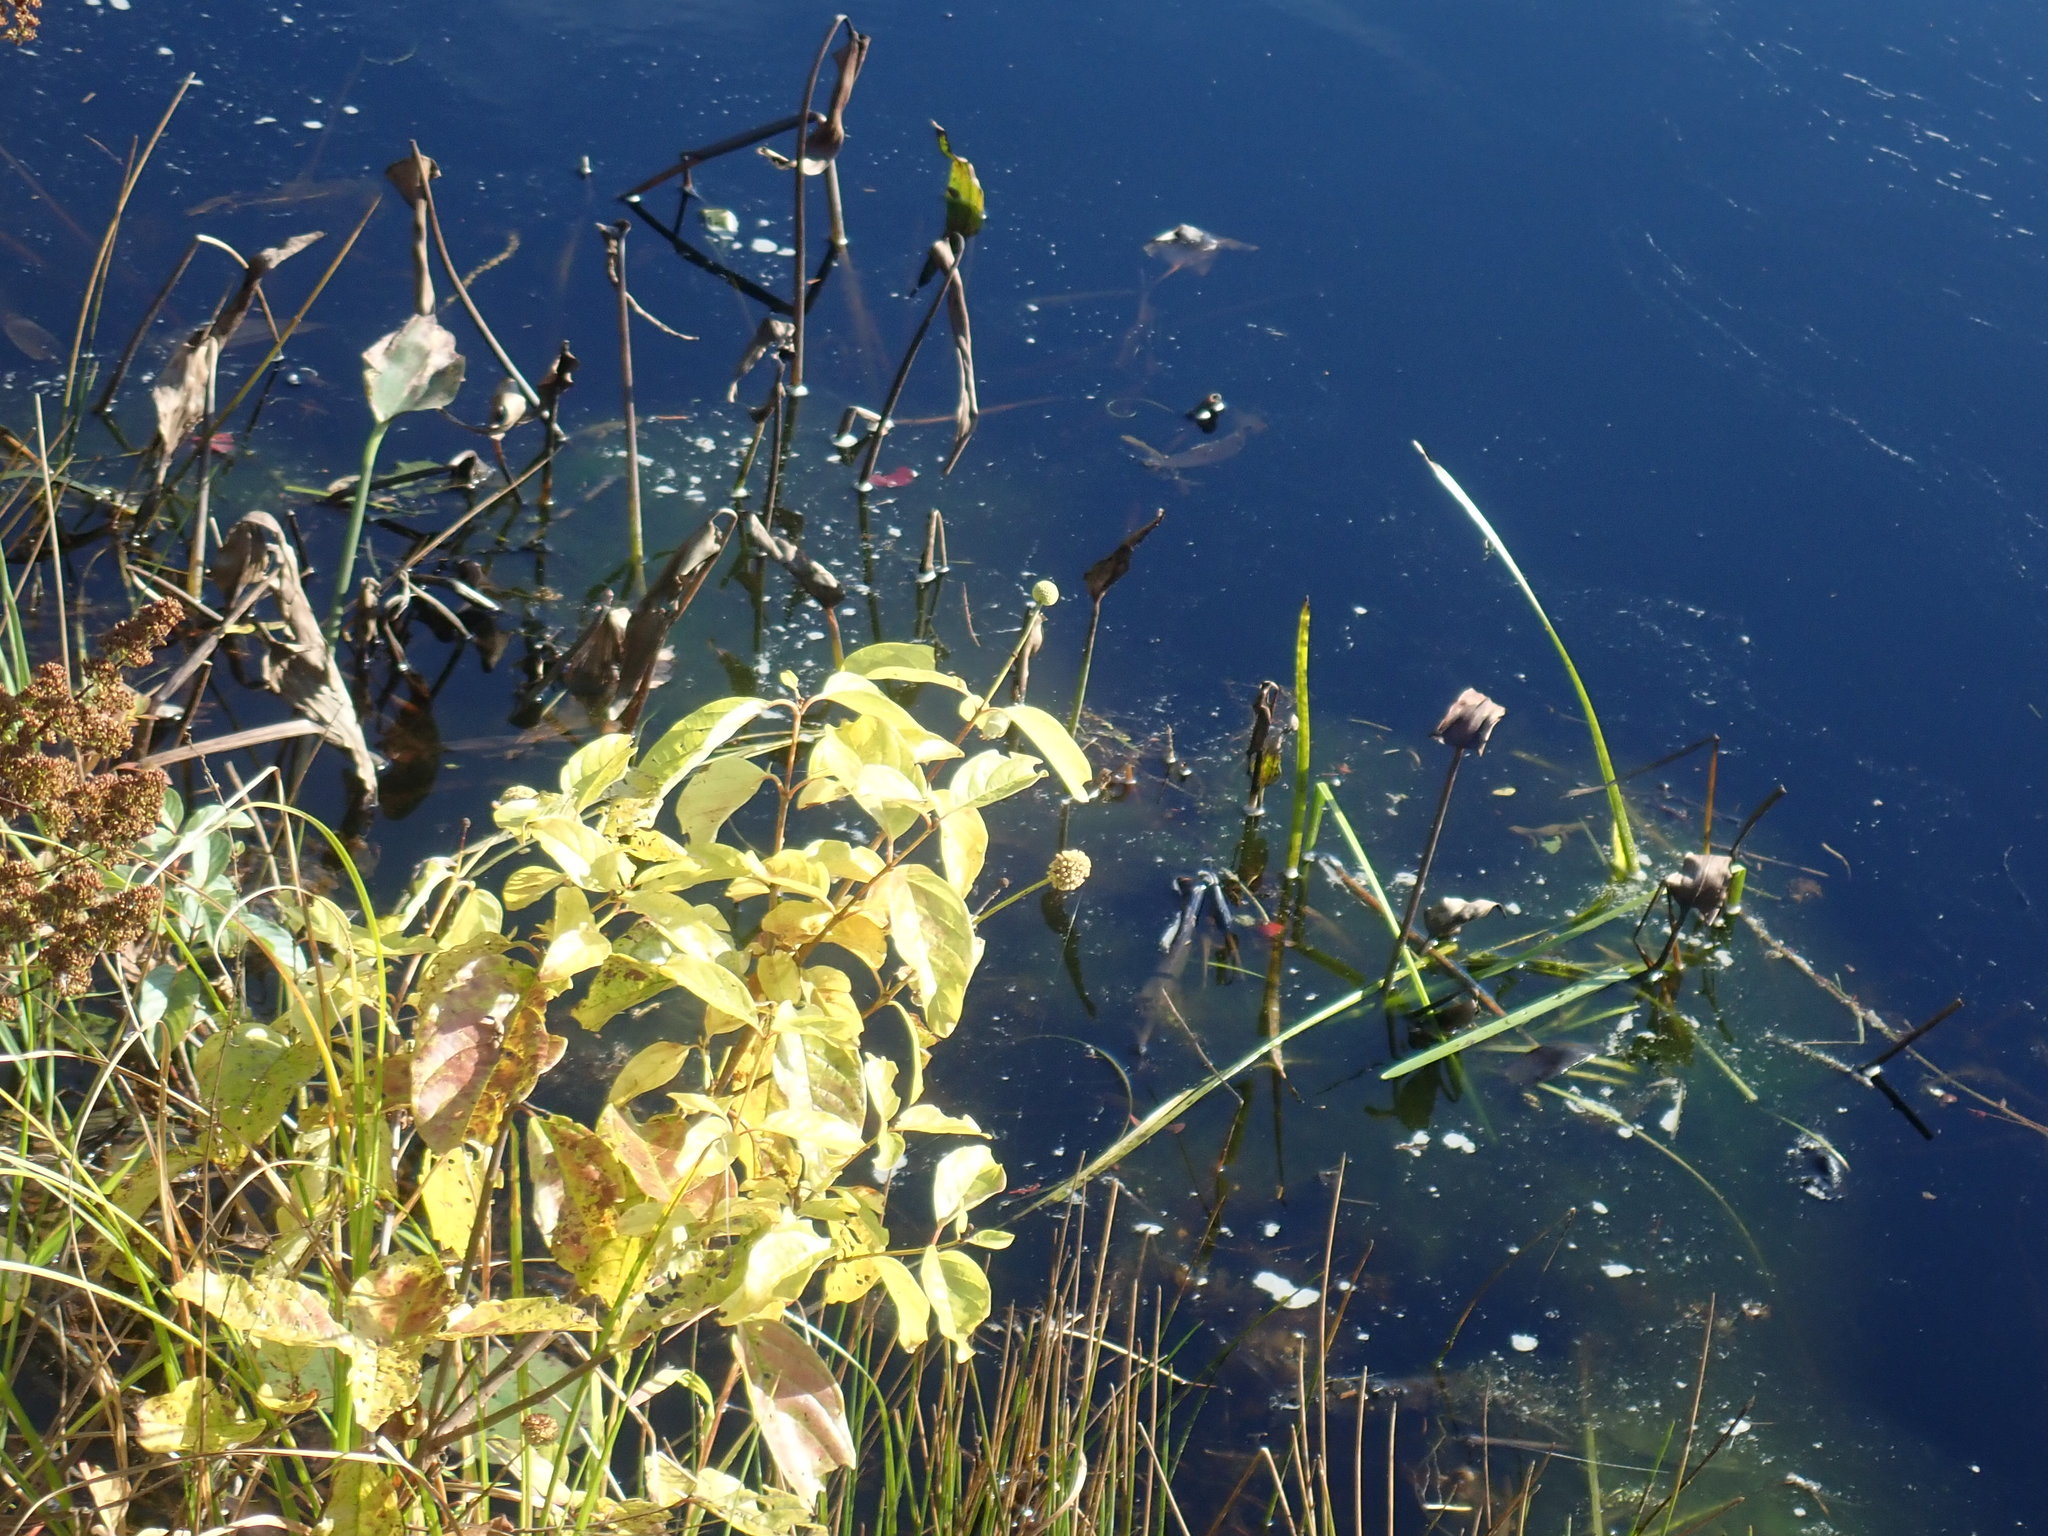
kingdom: Plantae
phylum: Tracheophyta
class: Magnoliopsida
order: Gentianales
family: Rubiaceae
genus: Cephalanthus
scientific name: Cephalanthus occidentalis
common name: Button-willow
